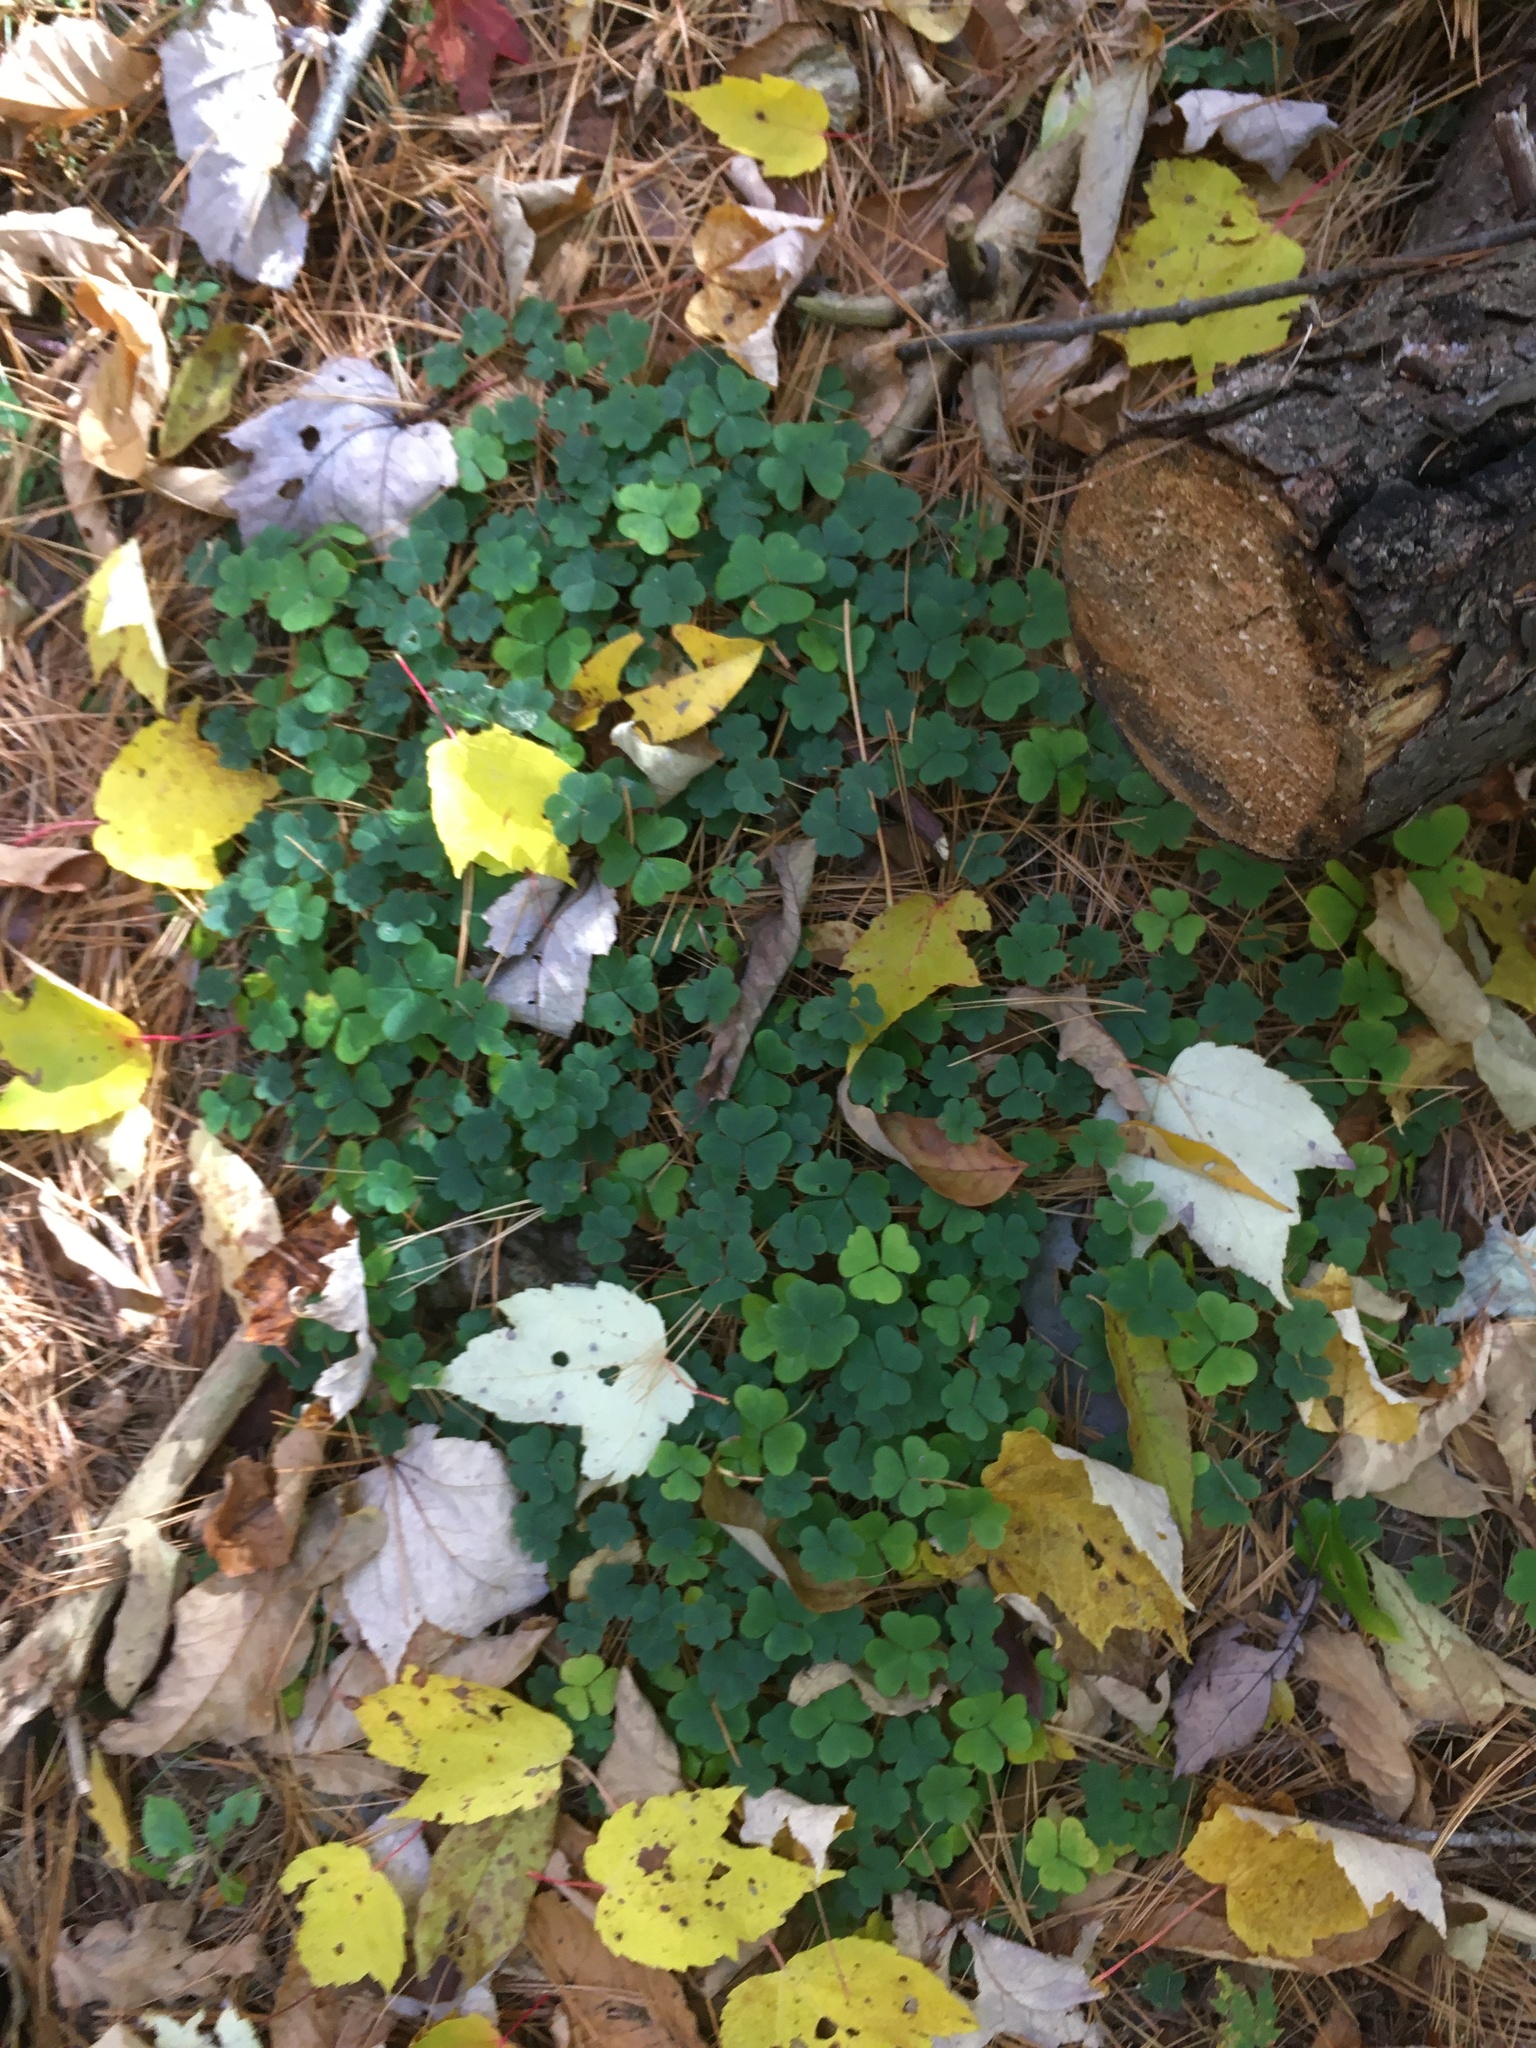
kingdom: Plantae
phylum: Tracheophyta
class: Magnoliopsida
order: Oxalidales
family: Oxalidaceae
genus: Oxalis
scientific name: Oxalis montana
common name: American wood-sorrel
